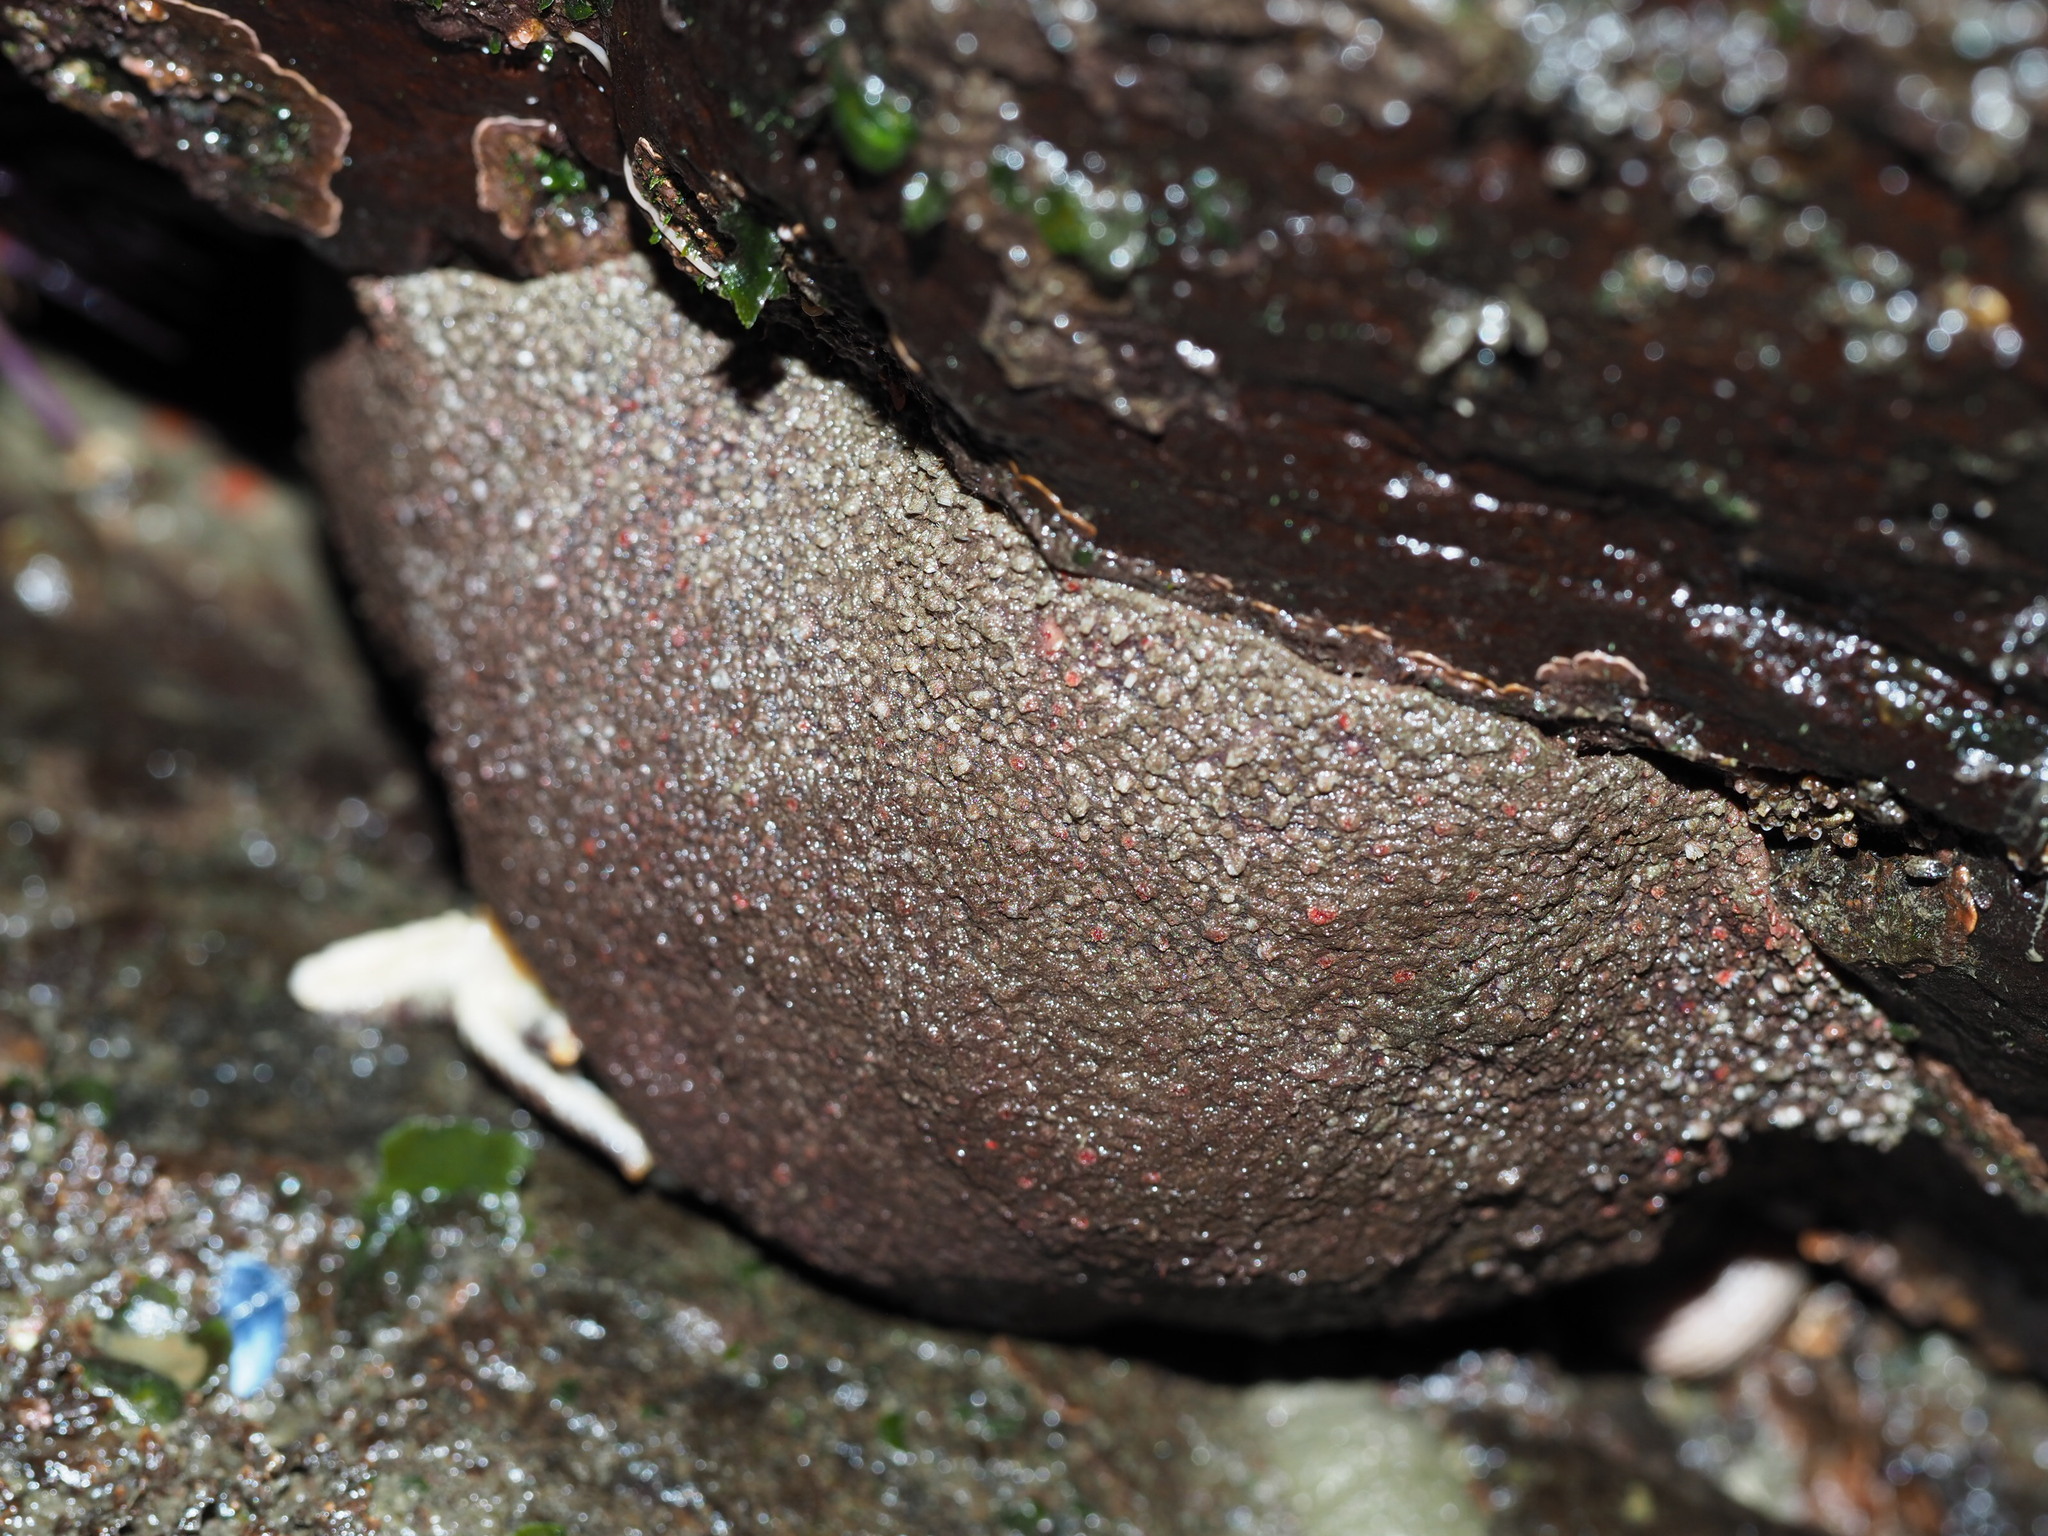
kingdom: Animalia
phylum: Mollusca
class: Polyplacophora
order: Chitonida
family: Acanthochitonidae
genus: Cryptochiton
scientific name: Cryptochiton stelleri
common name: Giant pacific chiton
